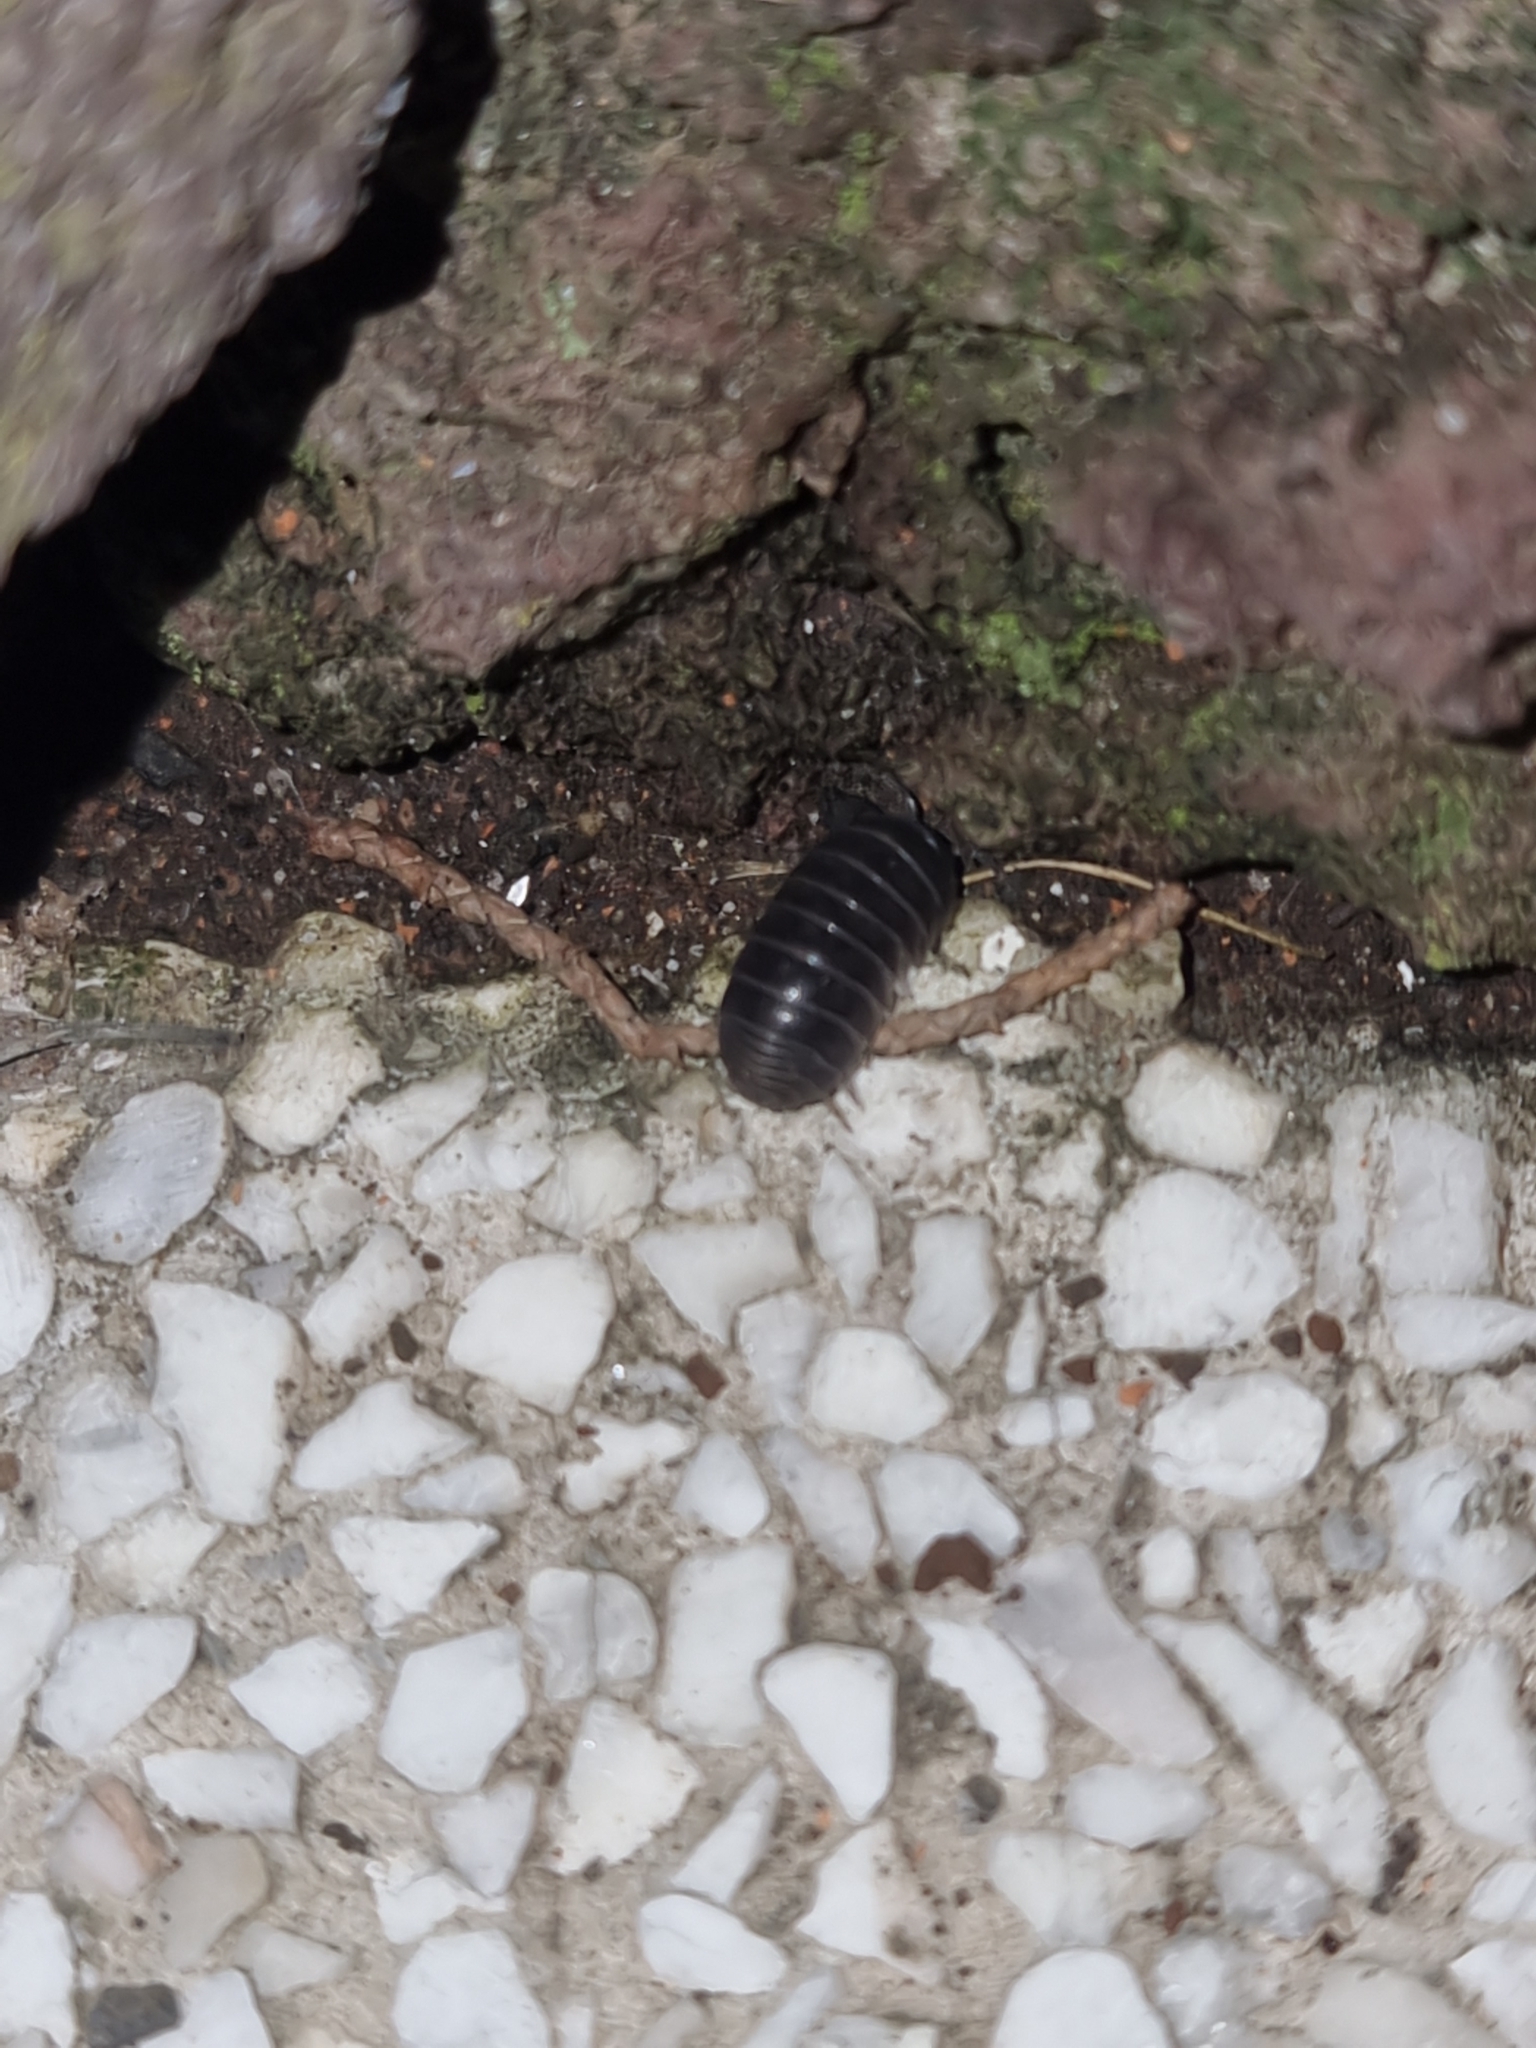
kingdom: Animalia
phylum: Arthropoda
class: Malacostraca
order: Isopoda
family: Armadillidiidae
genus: Armadillidium
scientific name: Armadillidium vulgare
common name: Common pill woodlouse
